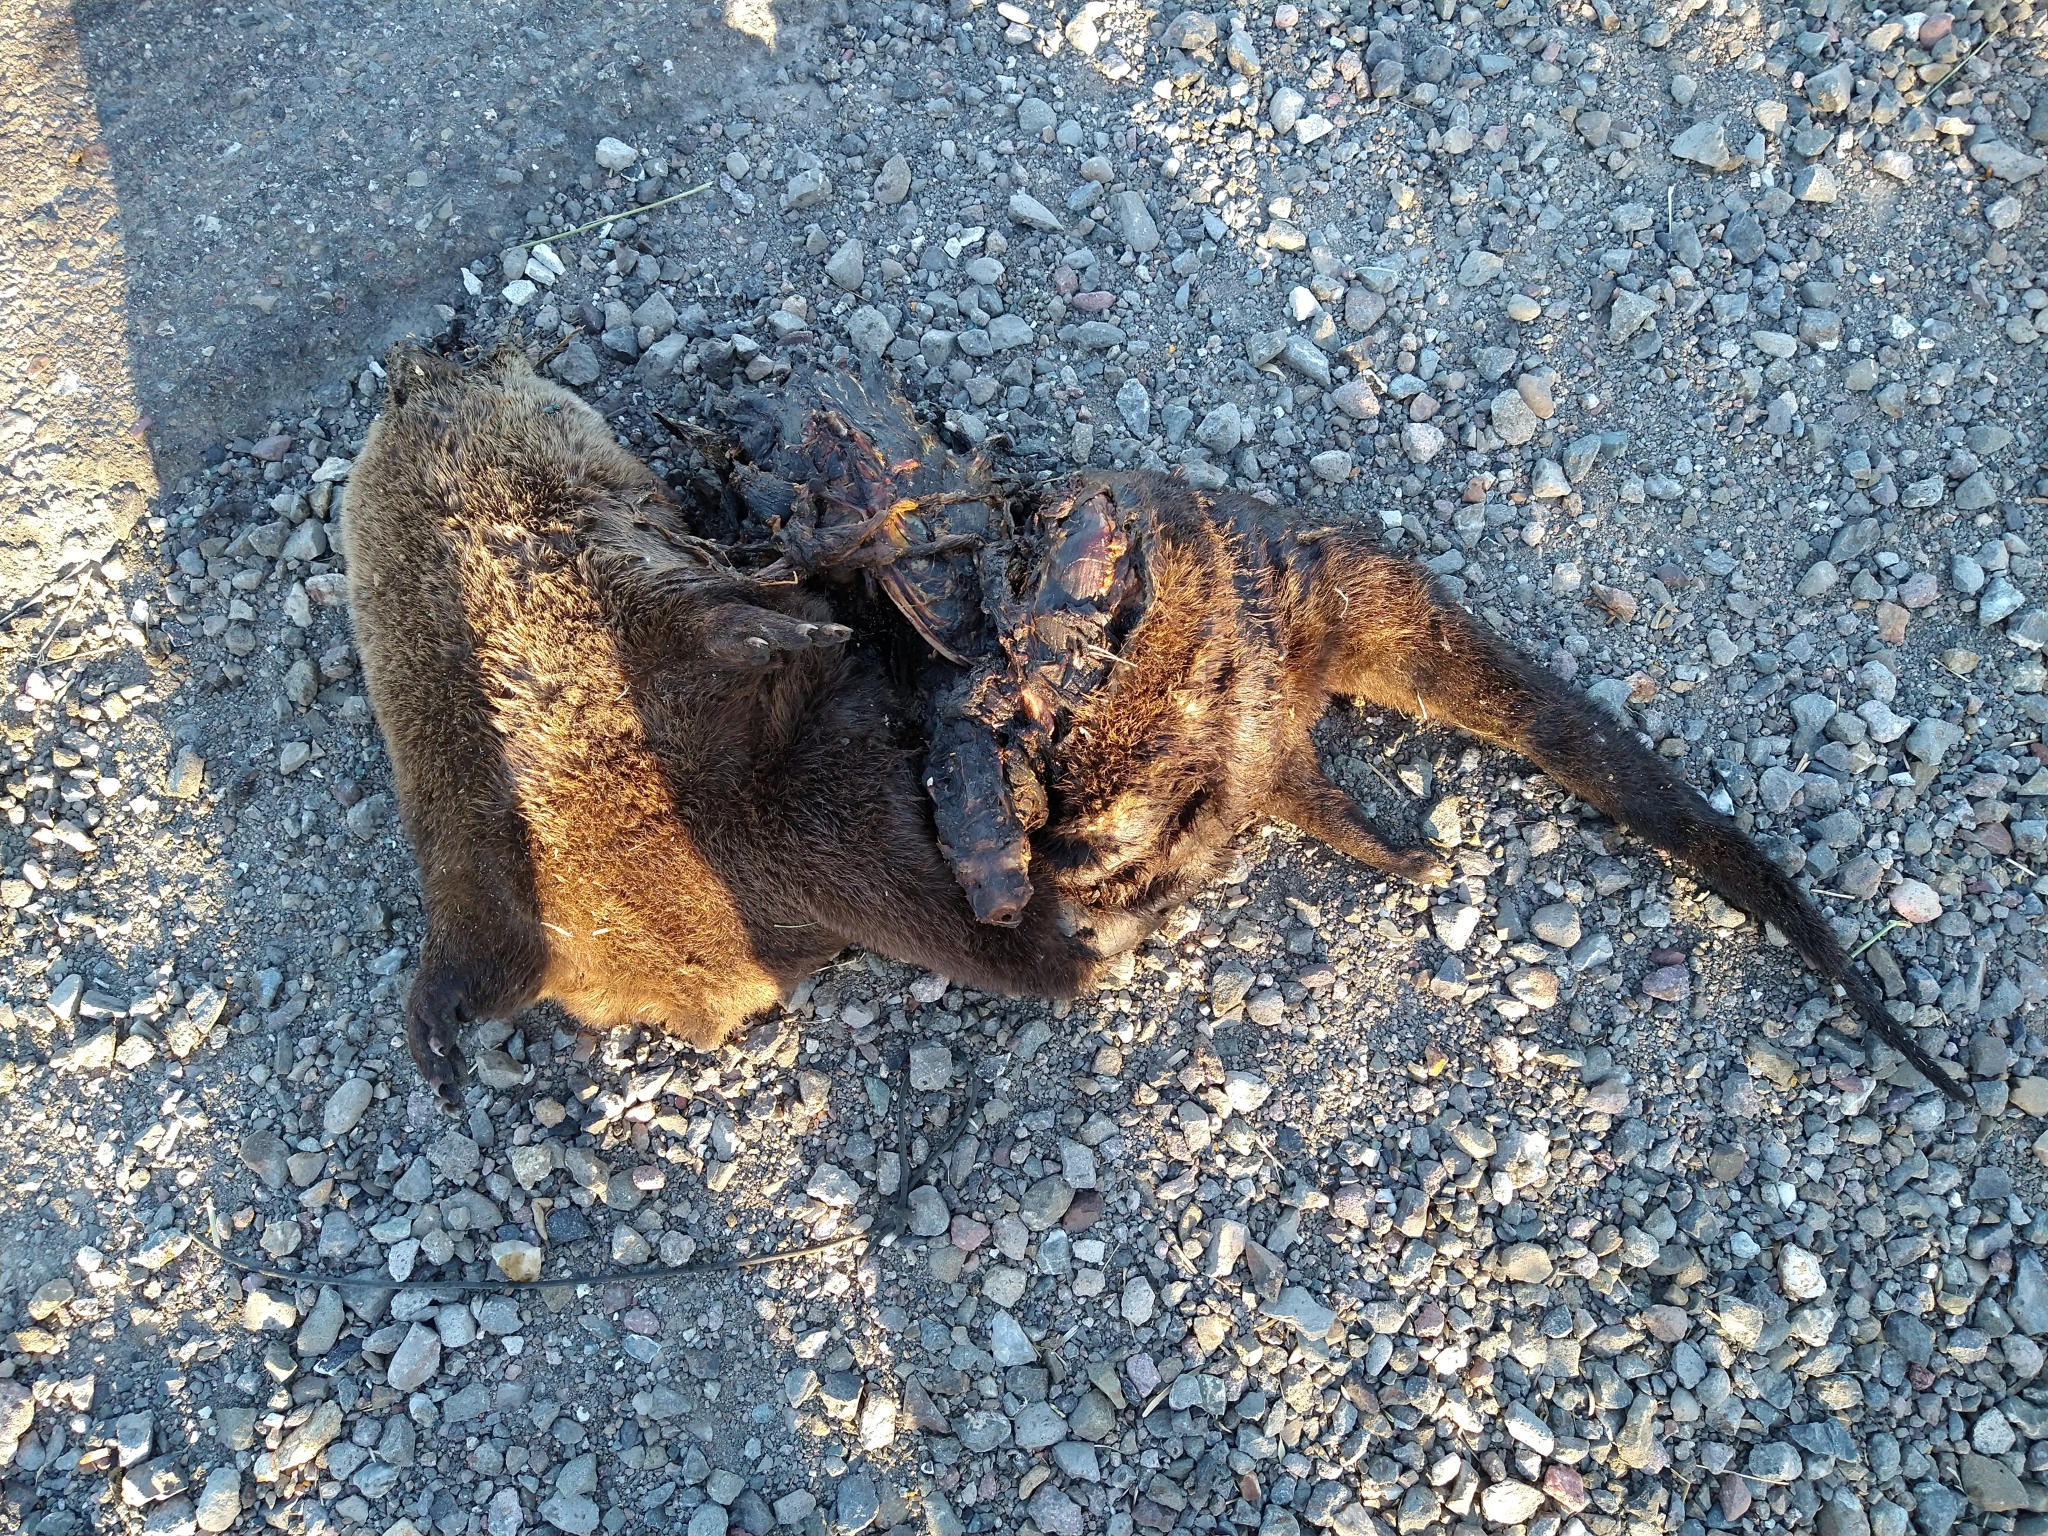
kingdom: Animalia
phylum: Chordata
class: Mammalia
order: Carnivora
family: Mustelidae
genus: Lontra
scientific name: Lontra canadensis
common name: North american river otter
